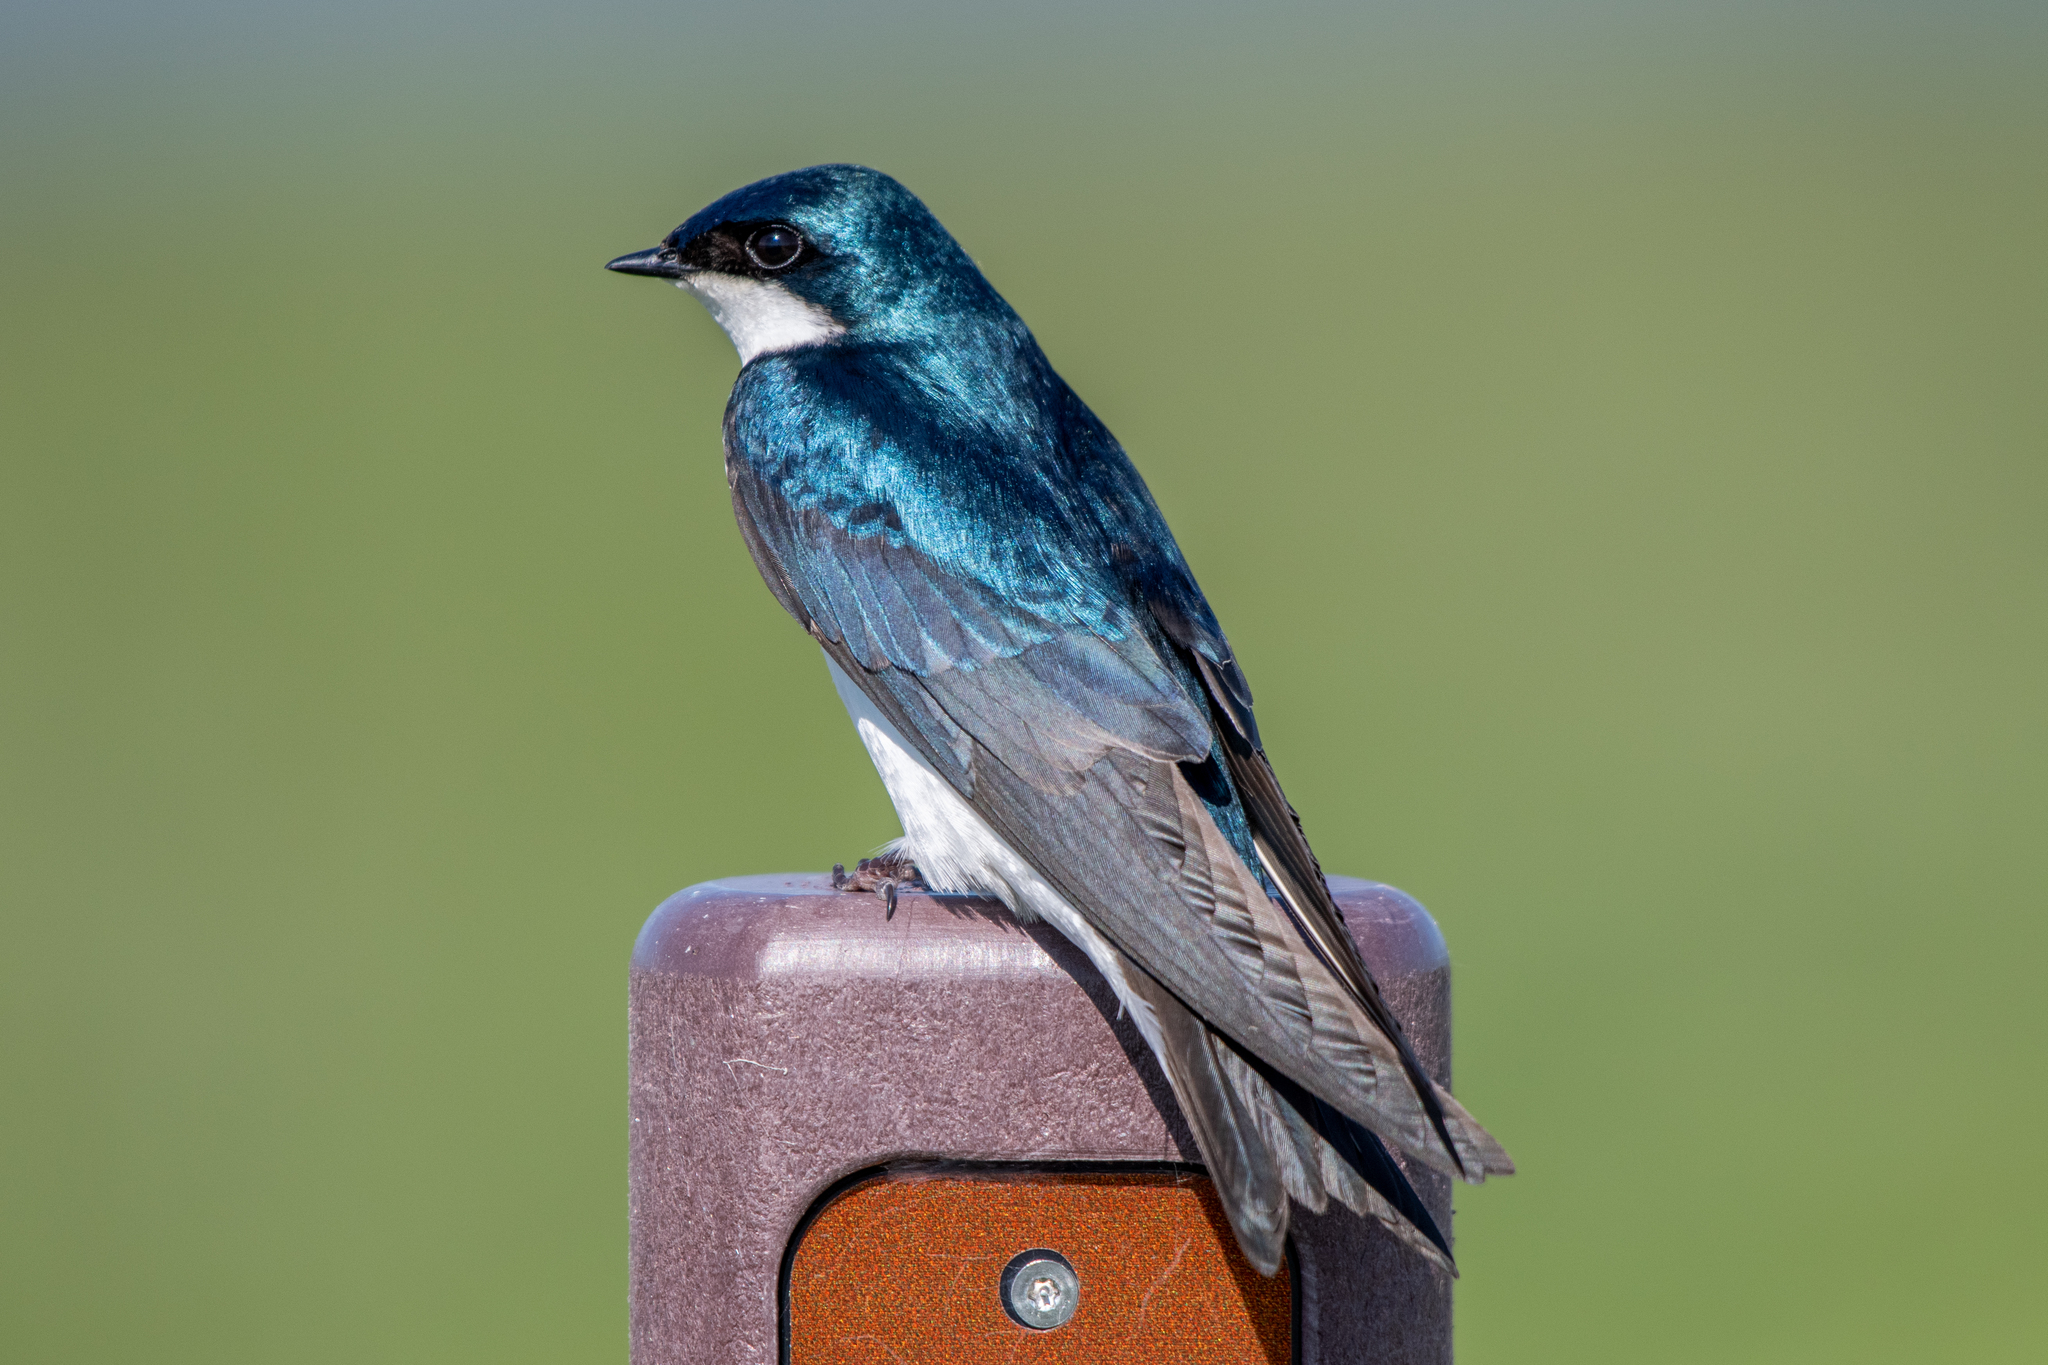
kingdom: Animalia
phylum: Chordata
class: Aves
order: Passeriformes
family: Hirundinidae
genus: Tachycineta
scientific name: Tachycineta bicolor
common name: Tree swallow
